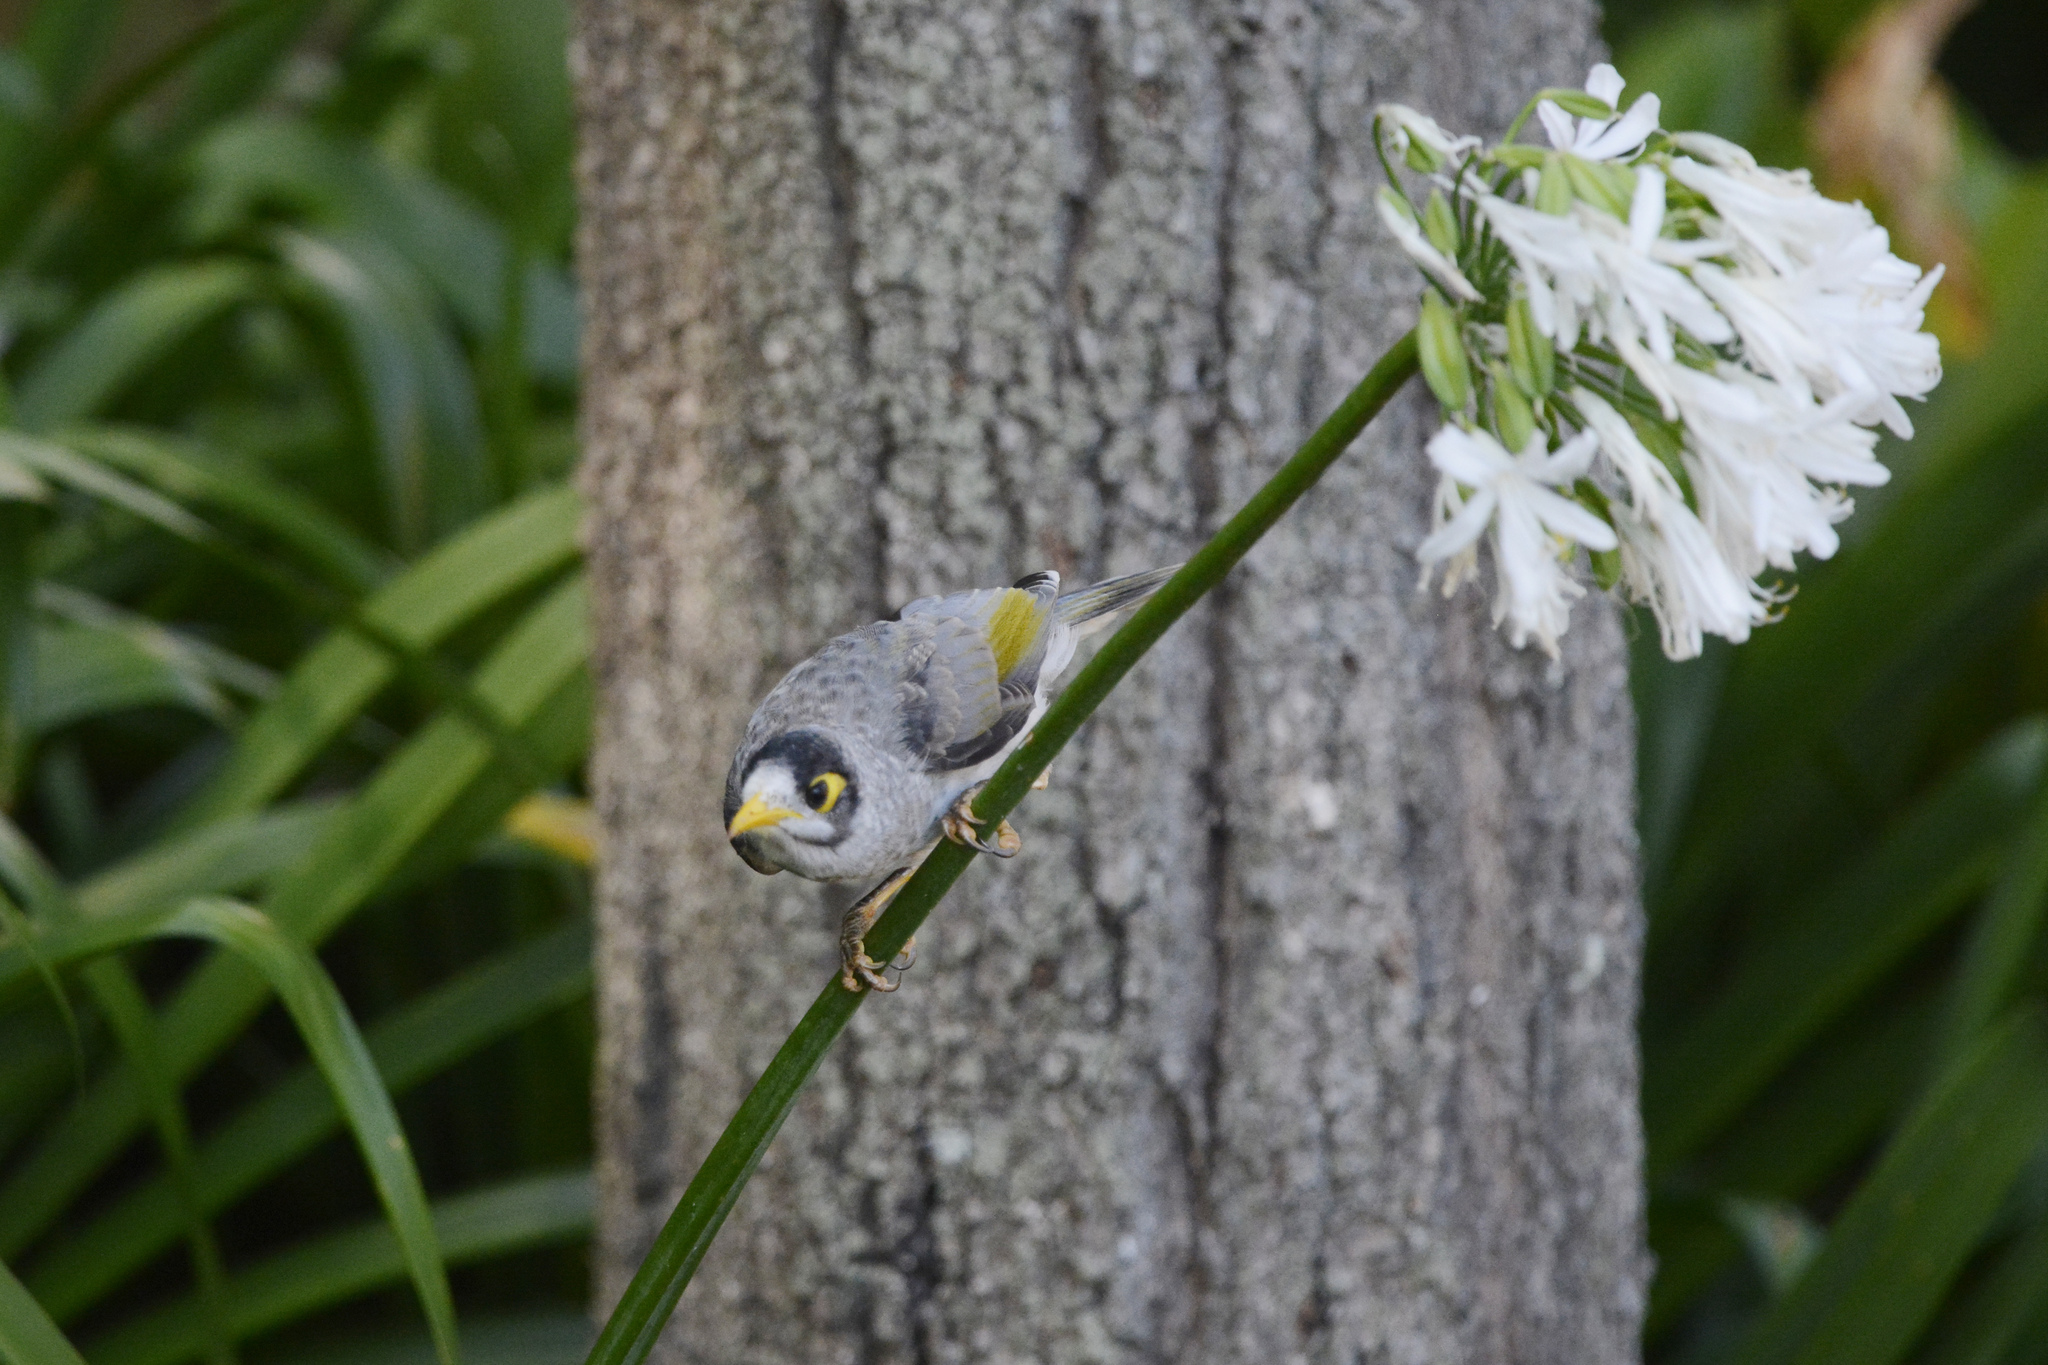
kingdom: Animalia
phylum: Chordata
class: Aves
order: Passeriformes
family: Meliphagidae
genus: Manorina
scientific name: Manorina melanocephala
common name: Noisy miner
